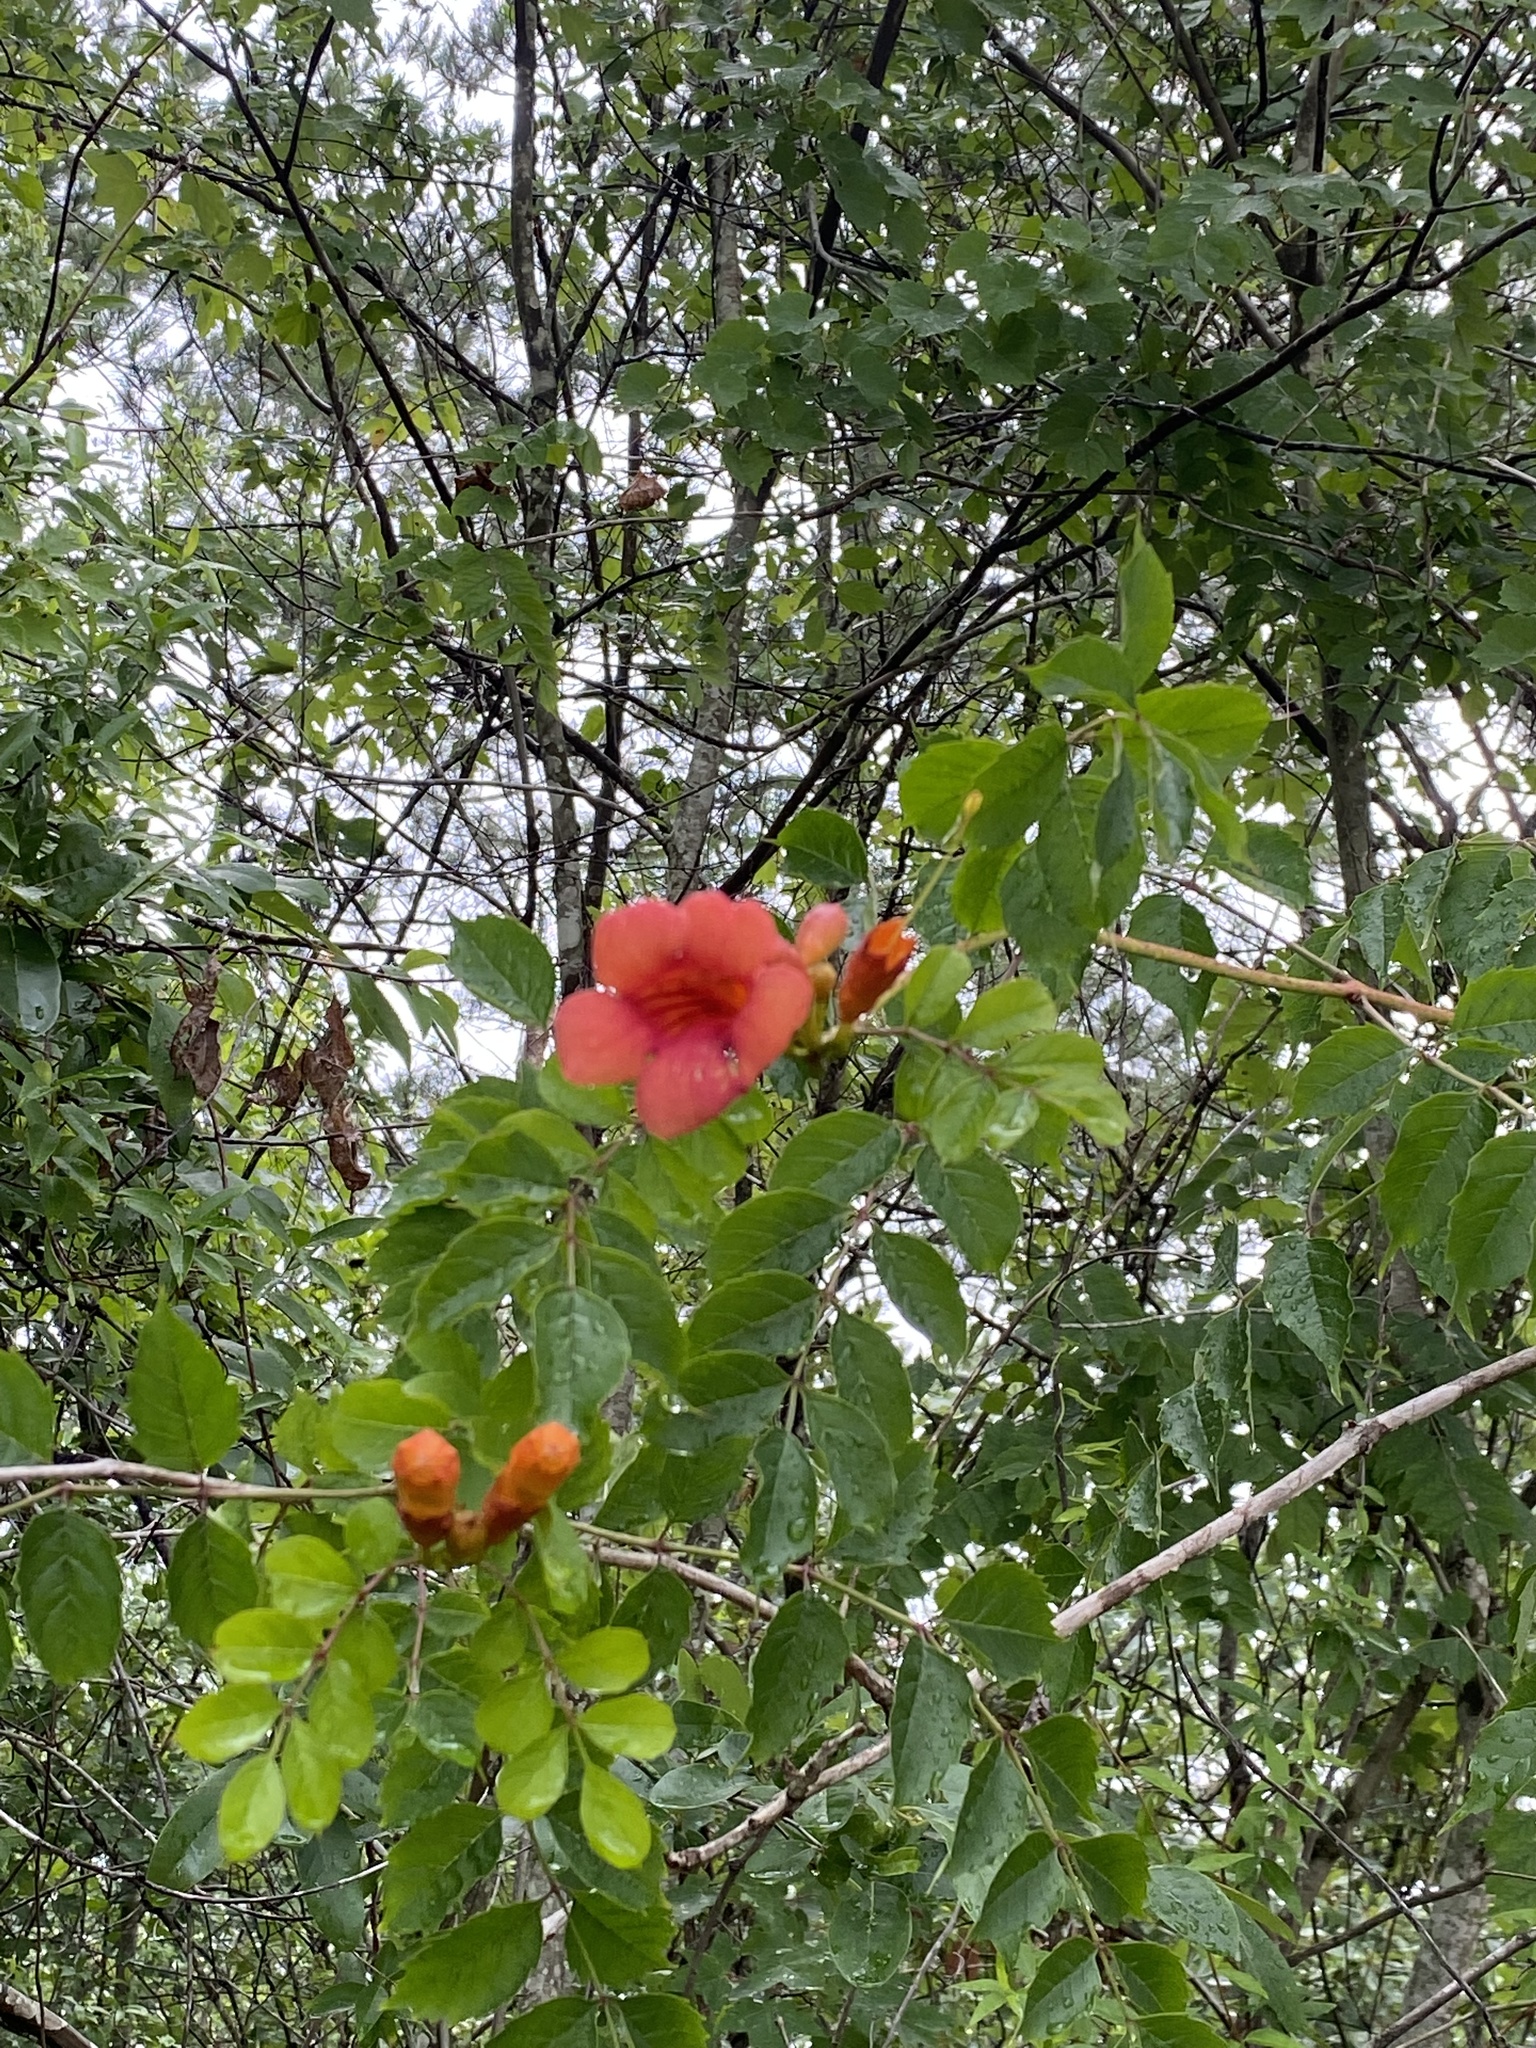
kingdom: Plantae
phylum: Tracheophyta
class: Magnoliopsida
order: Lamiales
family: Bignoniaceae
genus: Campsis
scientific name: Campsis radicans
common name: Trumpet-creeper
